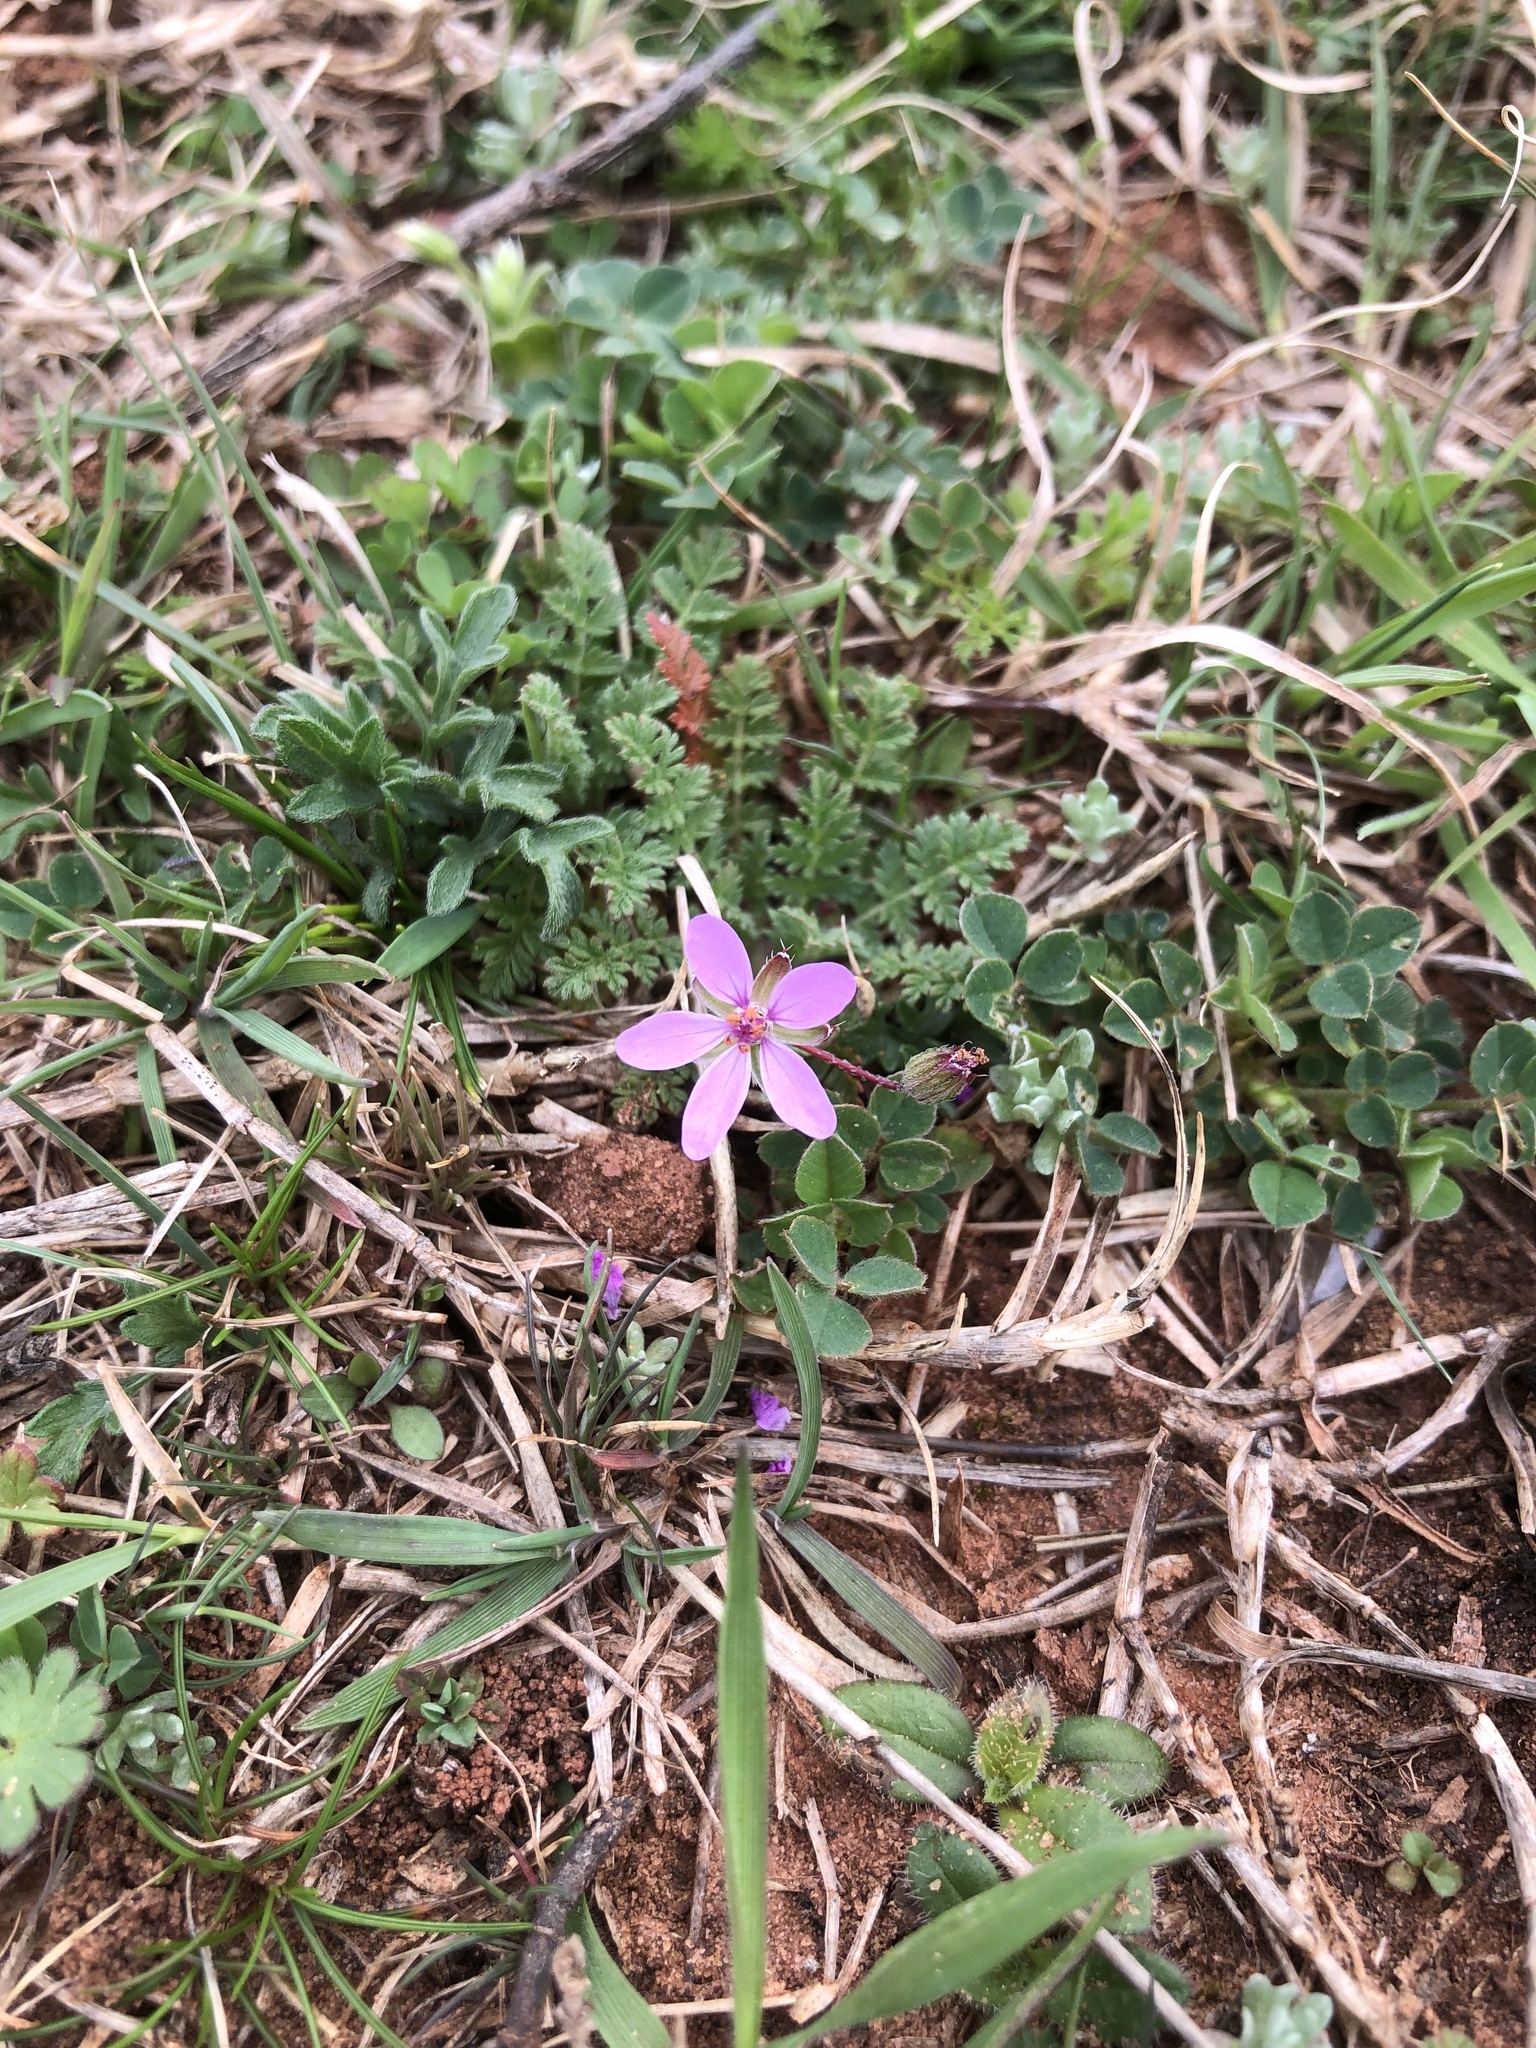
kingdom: Plantae
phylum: Tracheophyta
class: Magnoliopsida
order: Geraniales
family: Geraniaceae
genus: Erodium
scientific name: Erodium cicutarium
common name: Common stork's-bill
